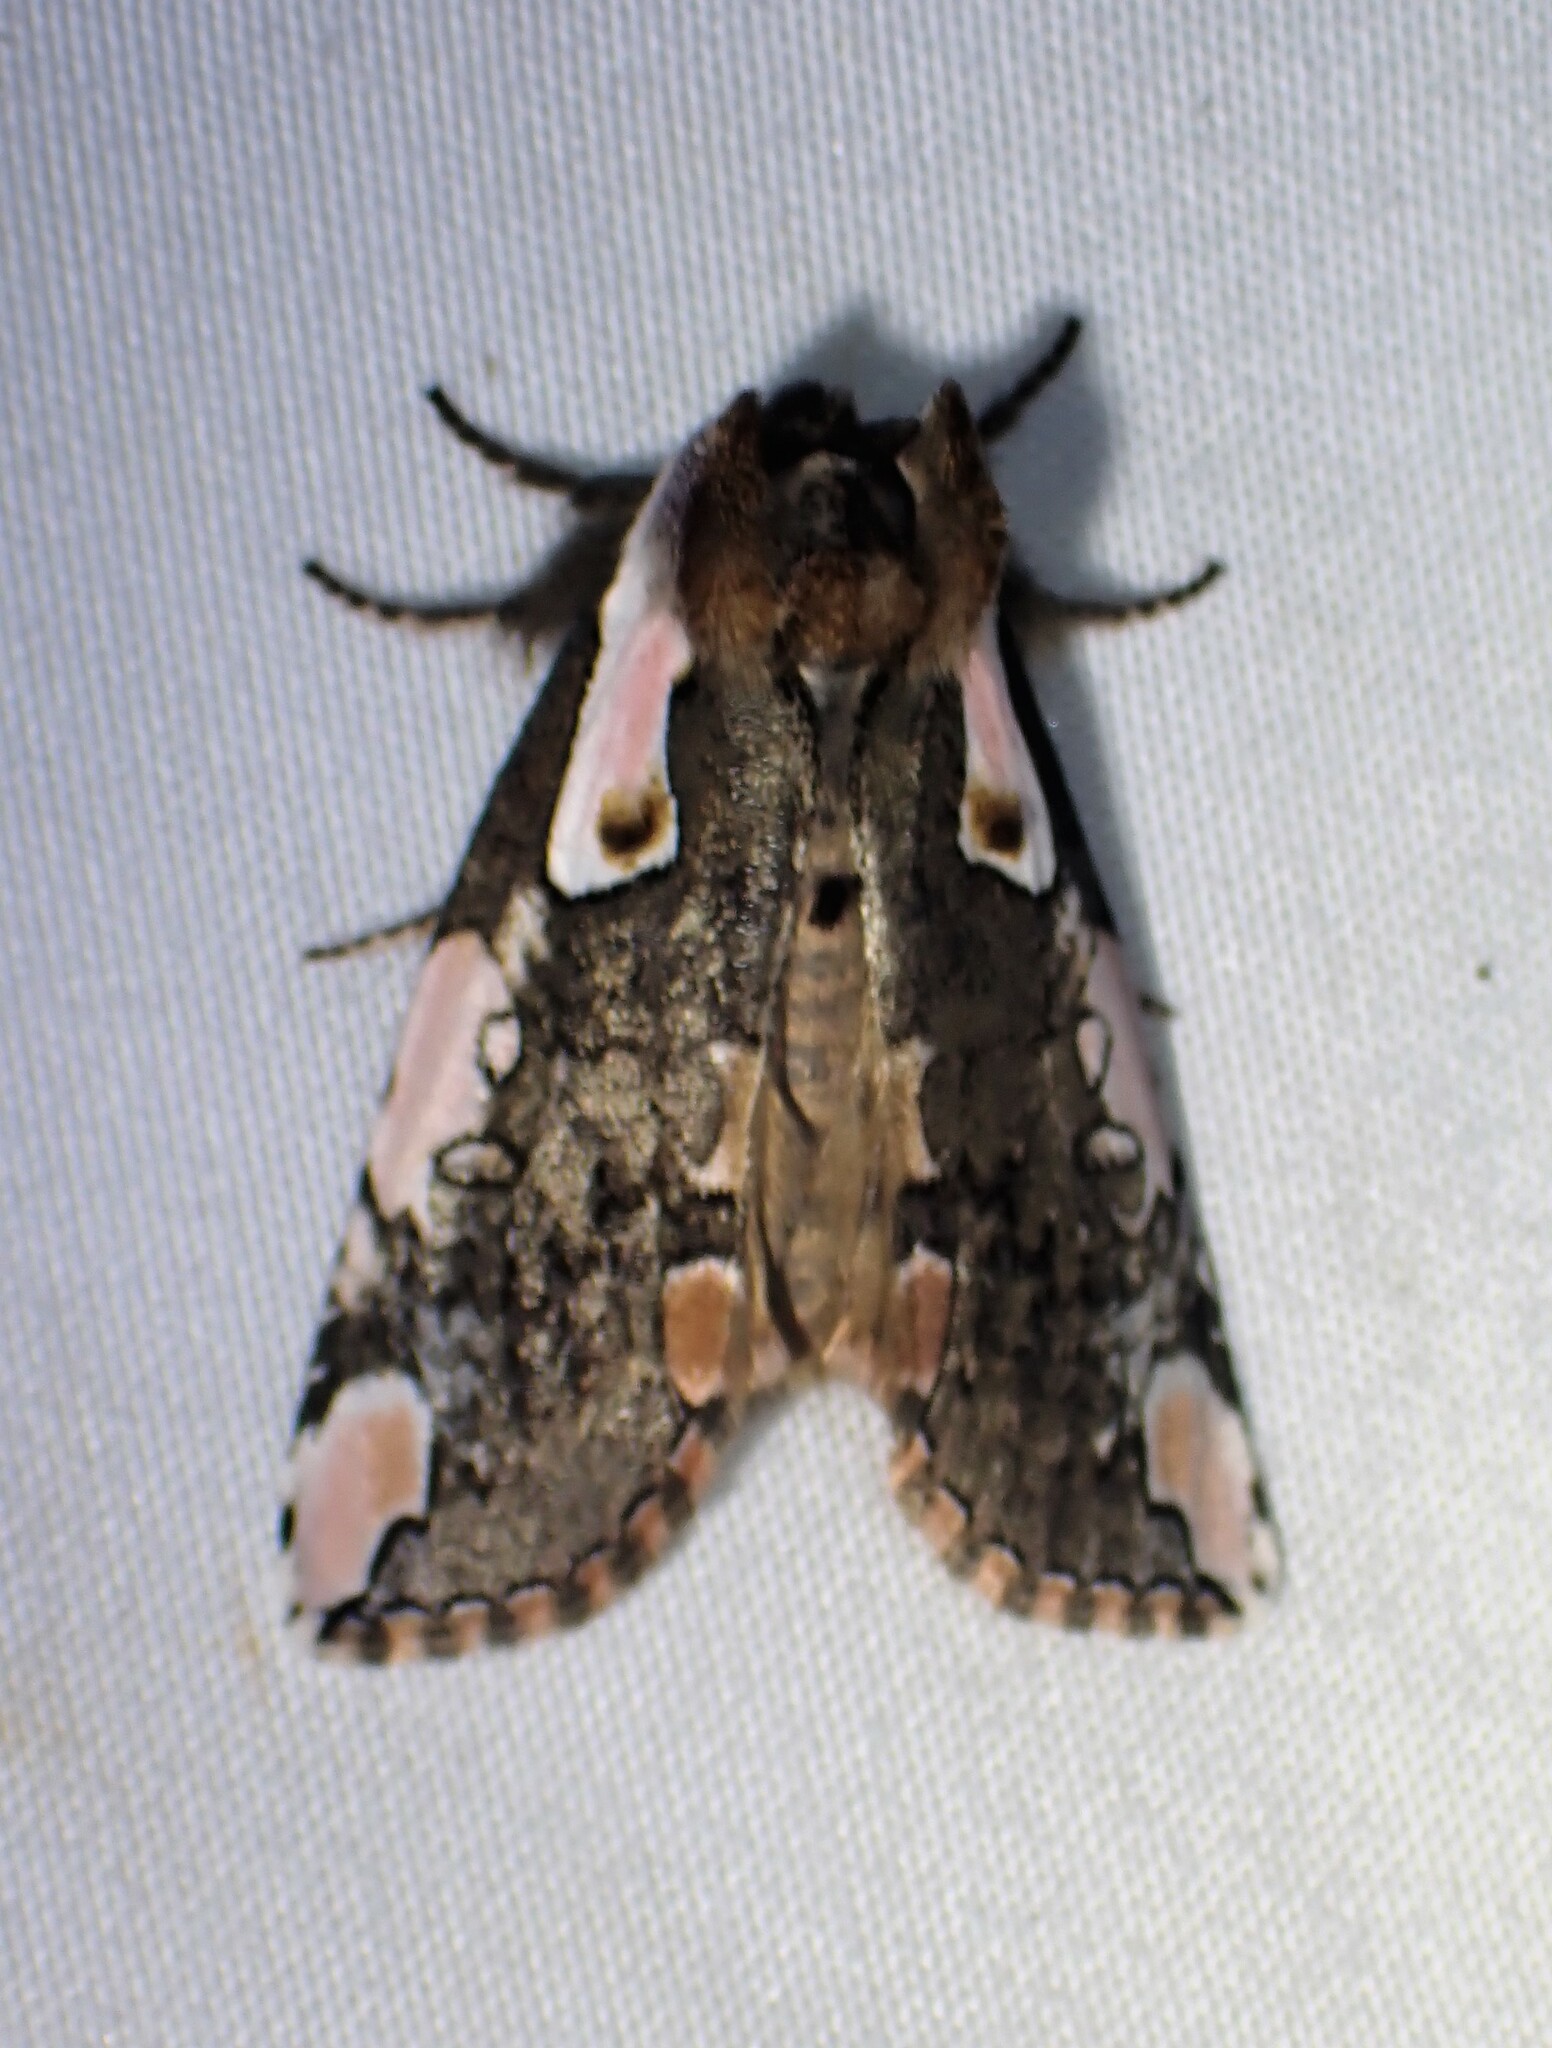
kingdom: Animalia
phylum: Arthropoda
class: Insecta
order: Lepidoptera
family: Drepanidae
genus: Euthyatira
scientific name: Euthyatira pudens
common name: Dogwood thyatirid moth
